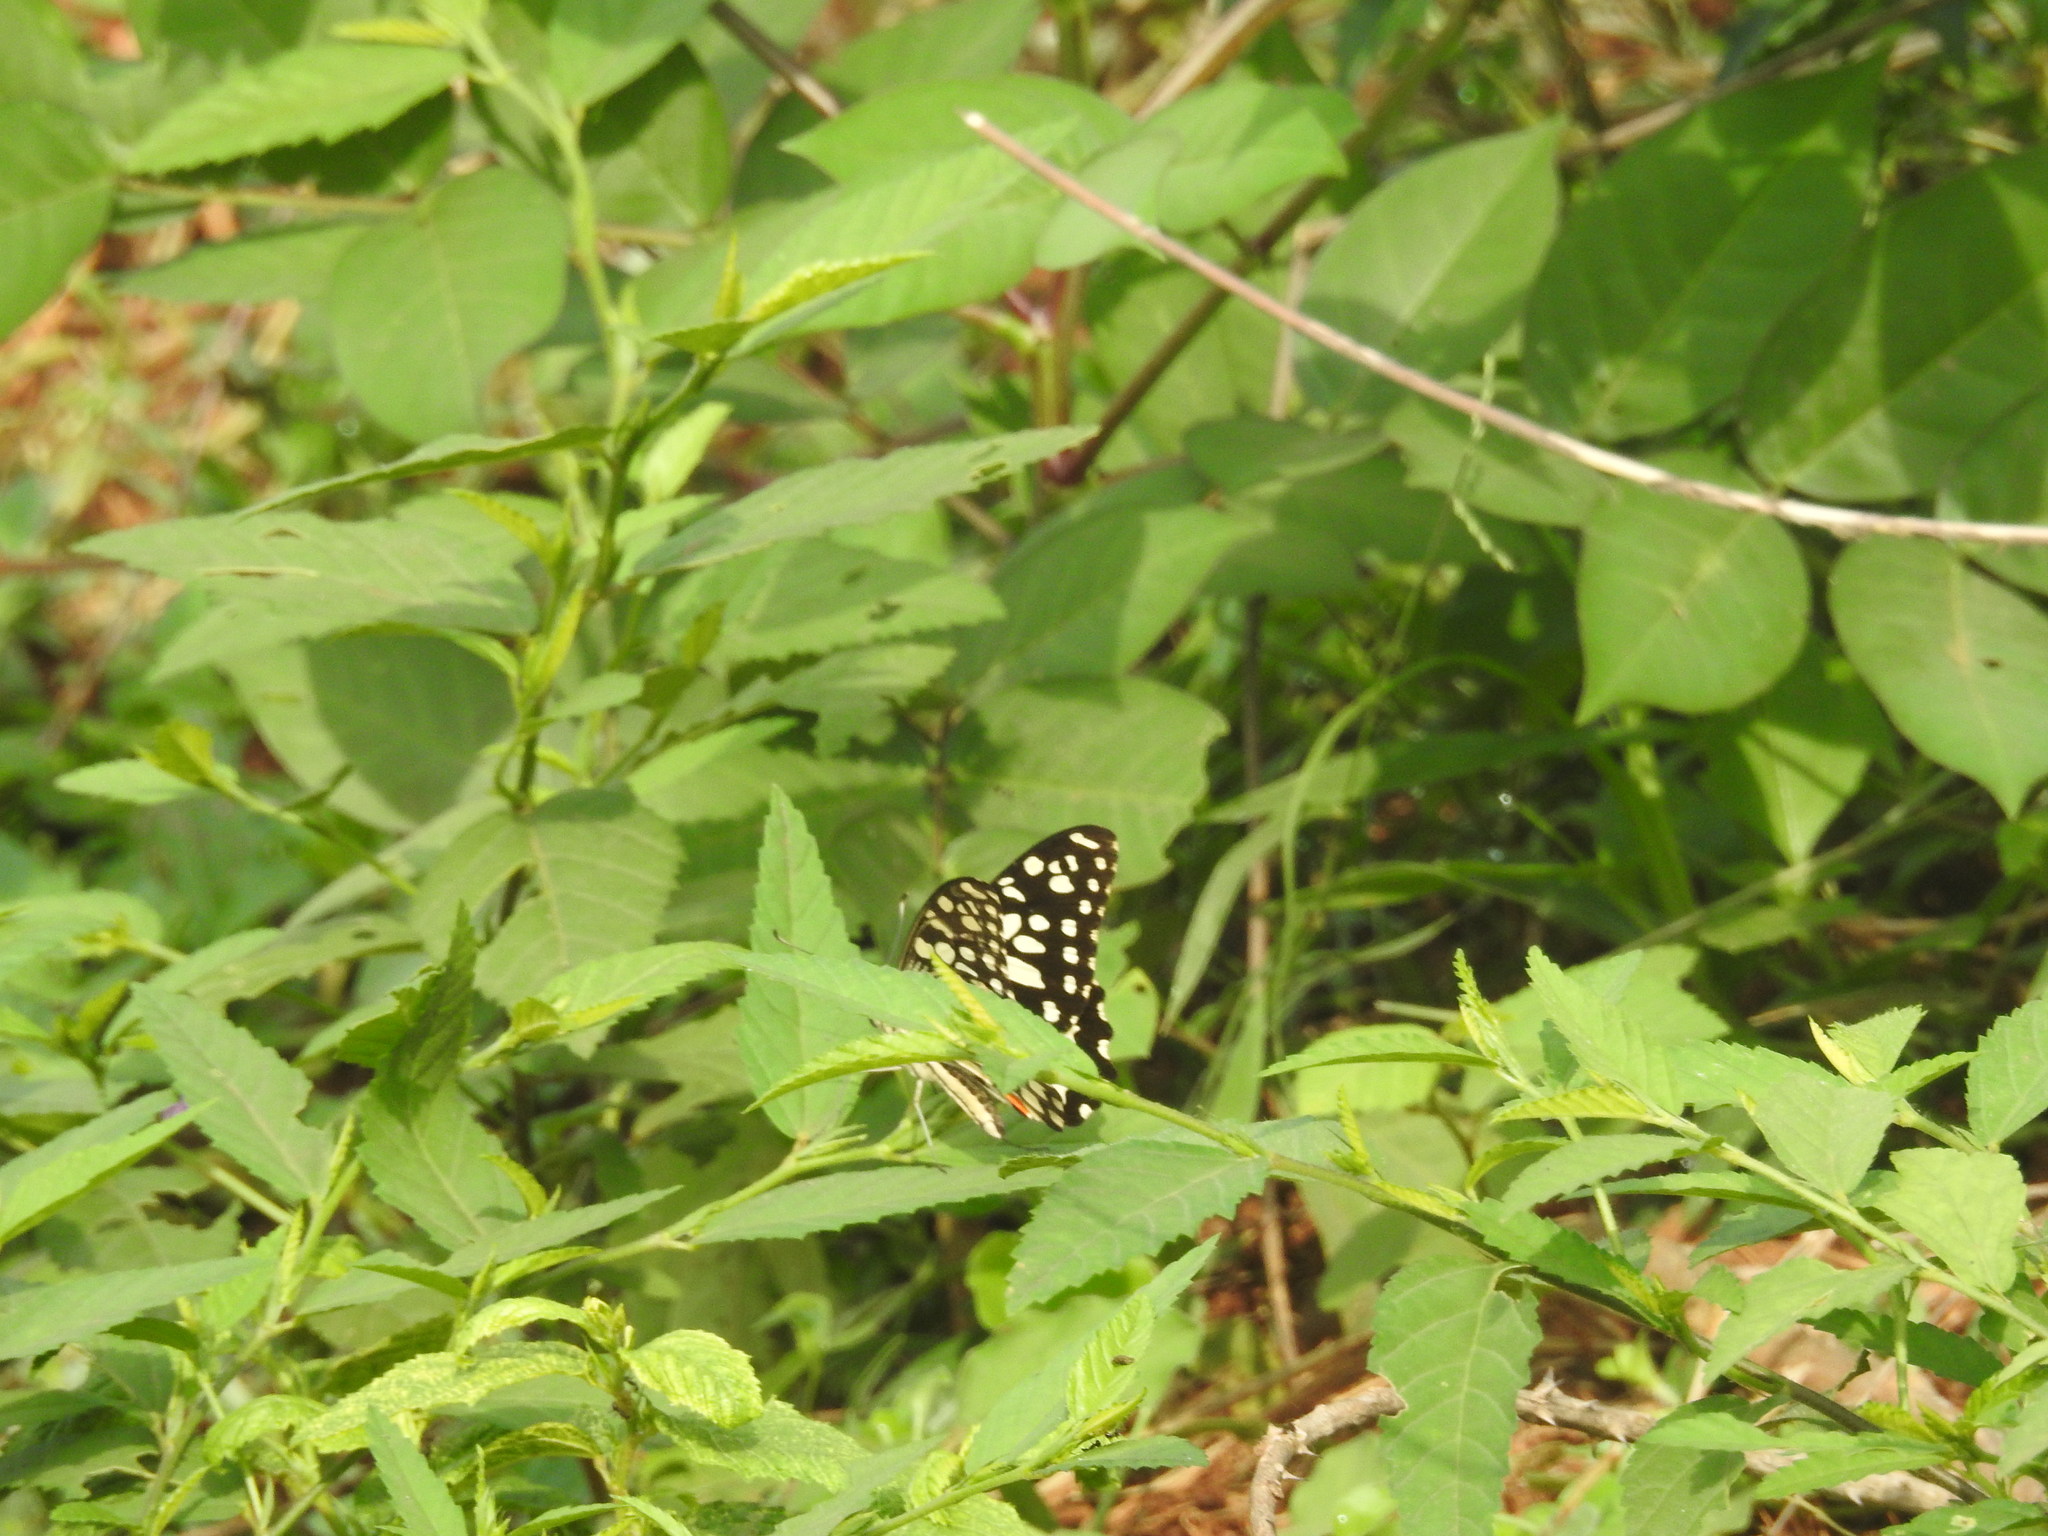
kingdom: Animalia
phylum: Arthropoda
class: Insecta
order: Lepidoptera
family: Papilionidae
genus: Papilio
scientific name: Papilio demoleus
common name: Lime butterfly
